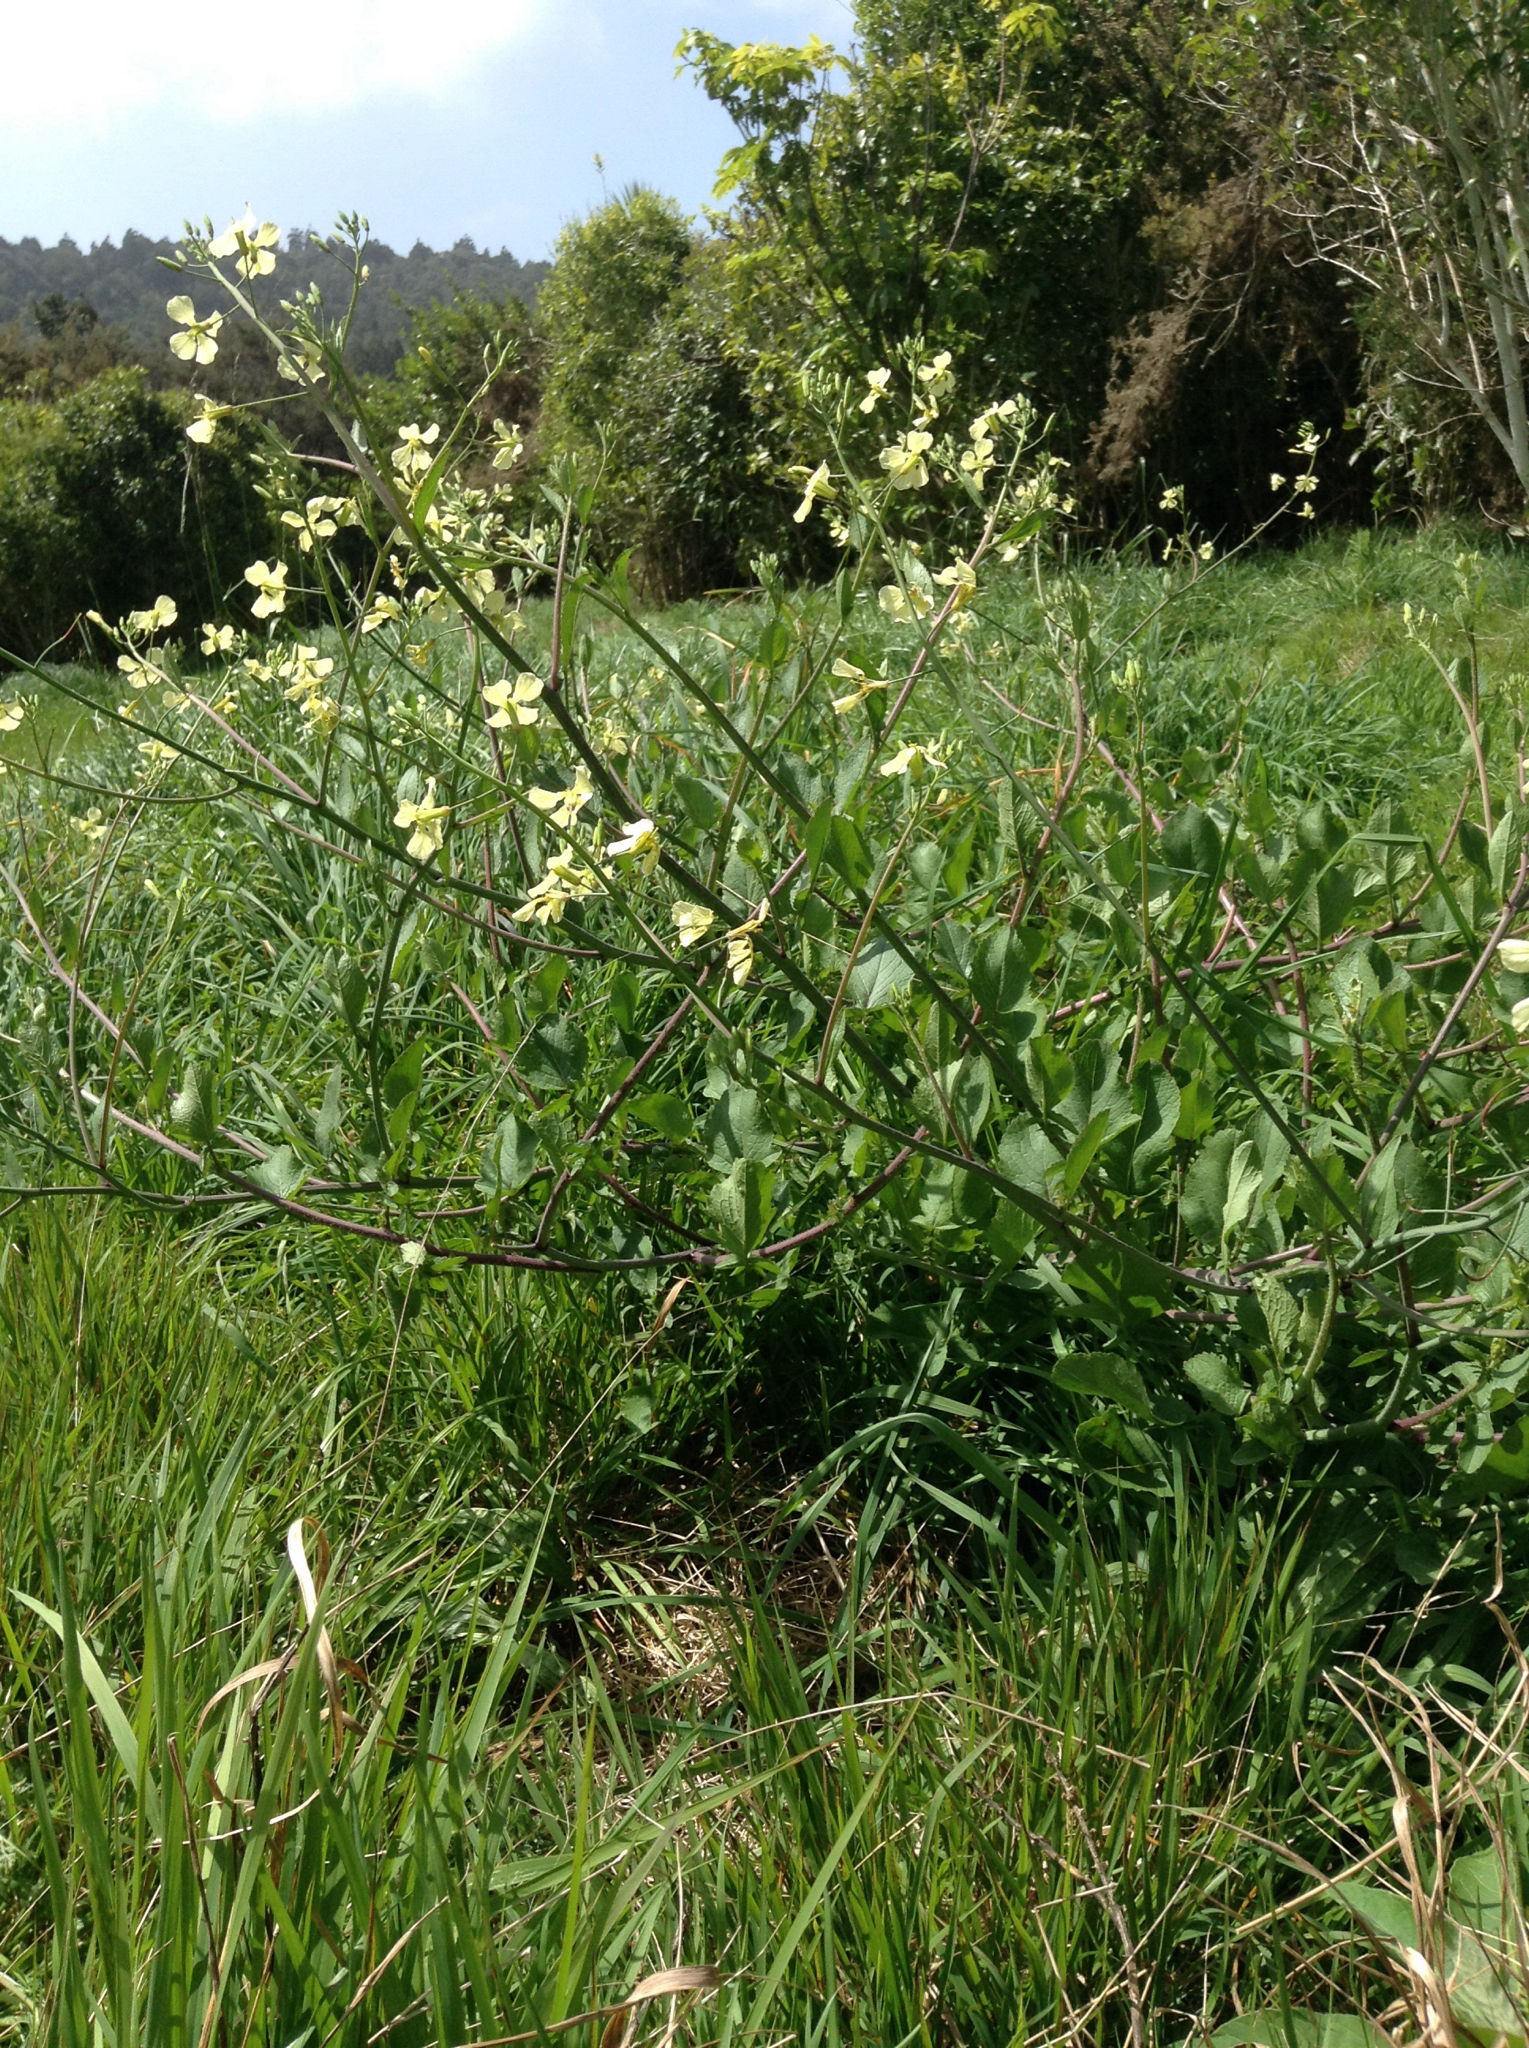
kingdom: Plantae
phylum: Tracheophyta
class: Magnoliopsida
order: Brassicales
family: Brassicaceae
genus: Raphanus
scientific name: Raphanus raphanistrum
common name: Wild radish
